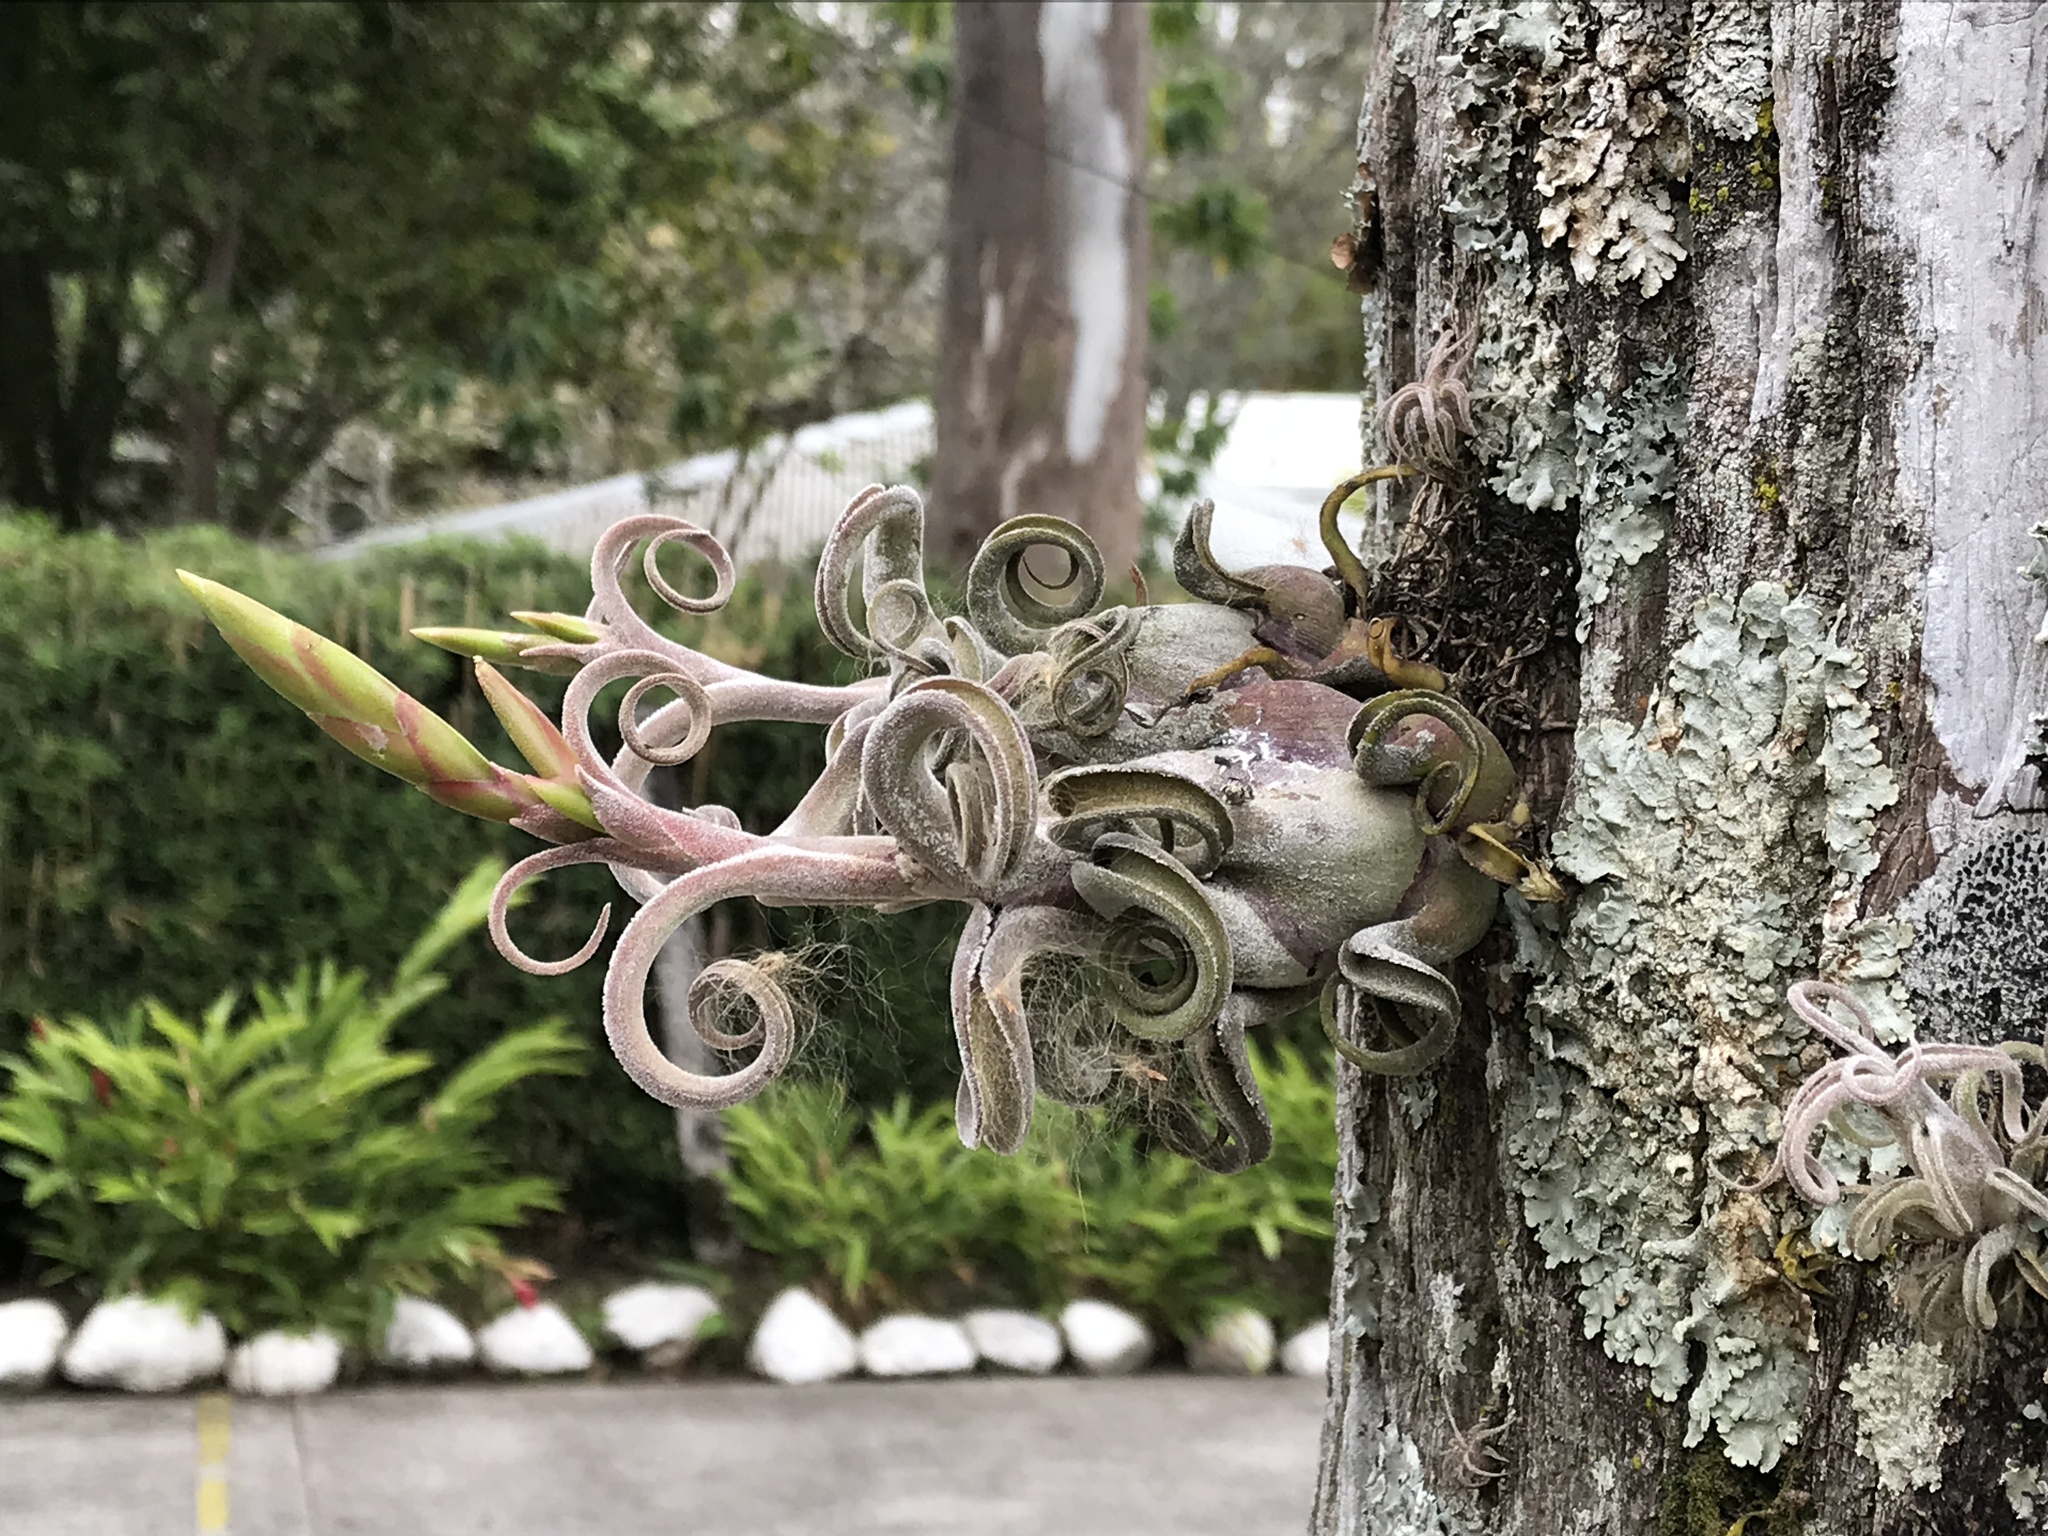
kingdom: Plantae
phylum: Tracheophyta
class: Liliopsida
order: Poales
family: Bromeliaceae
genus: Tillandsia
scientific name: Tillandsia caput-medusae
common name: Octopus plant
